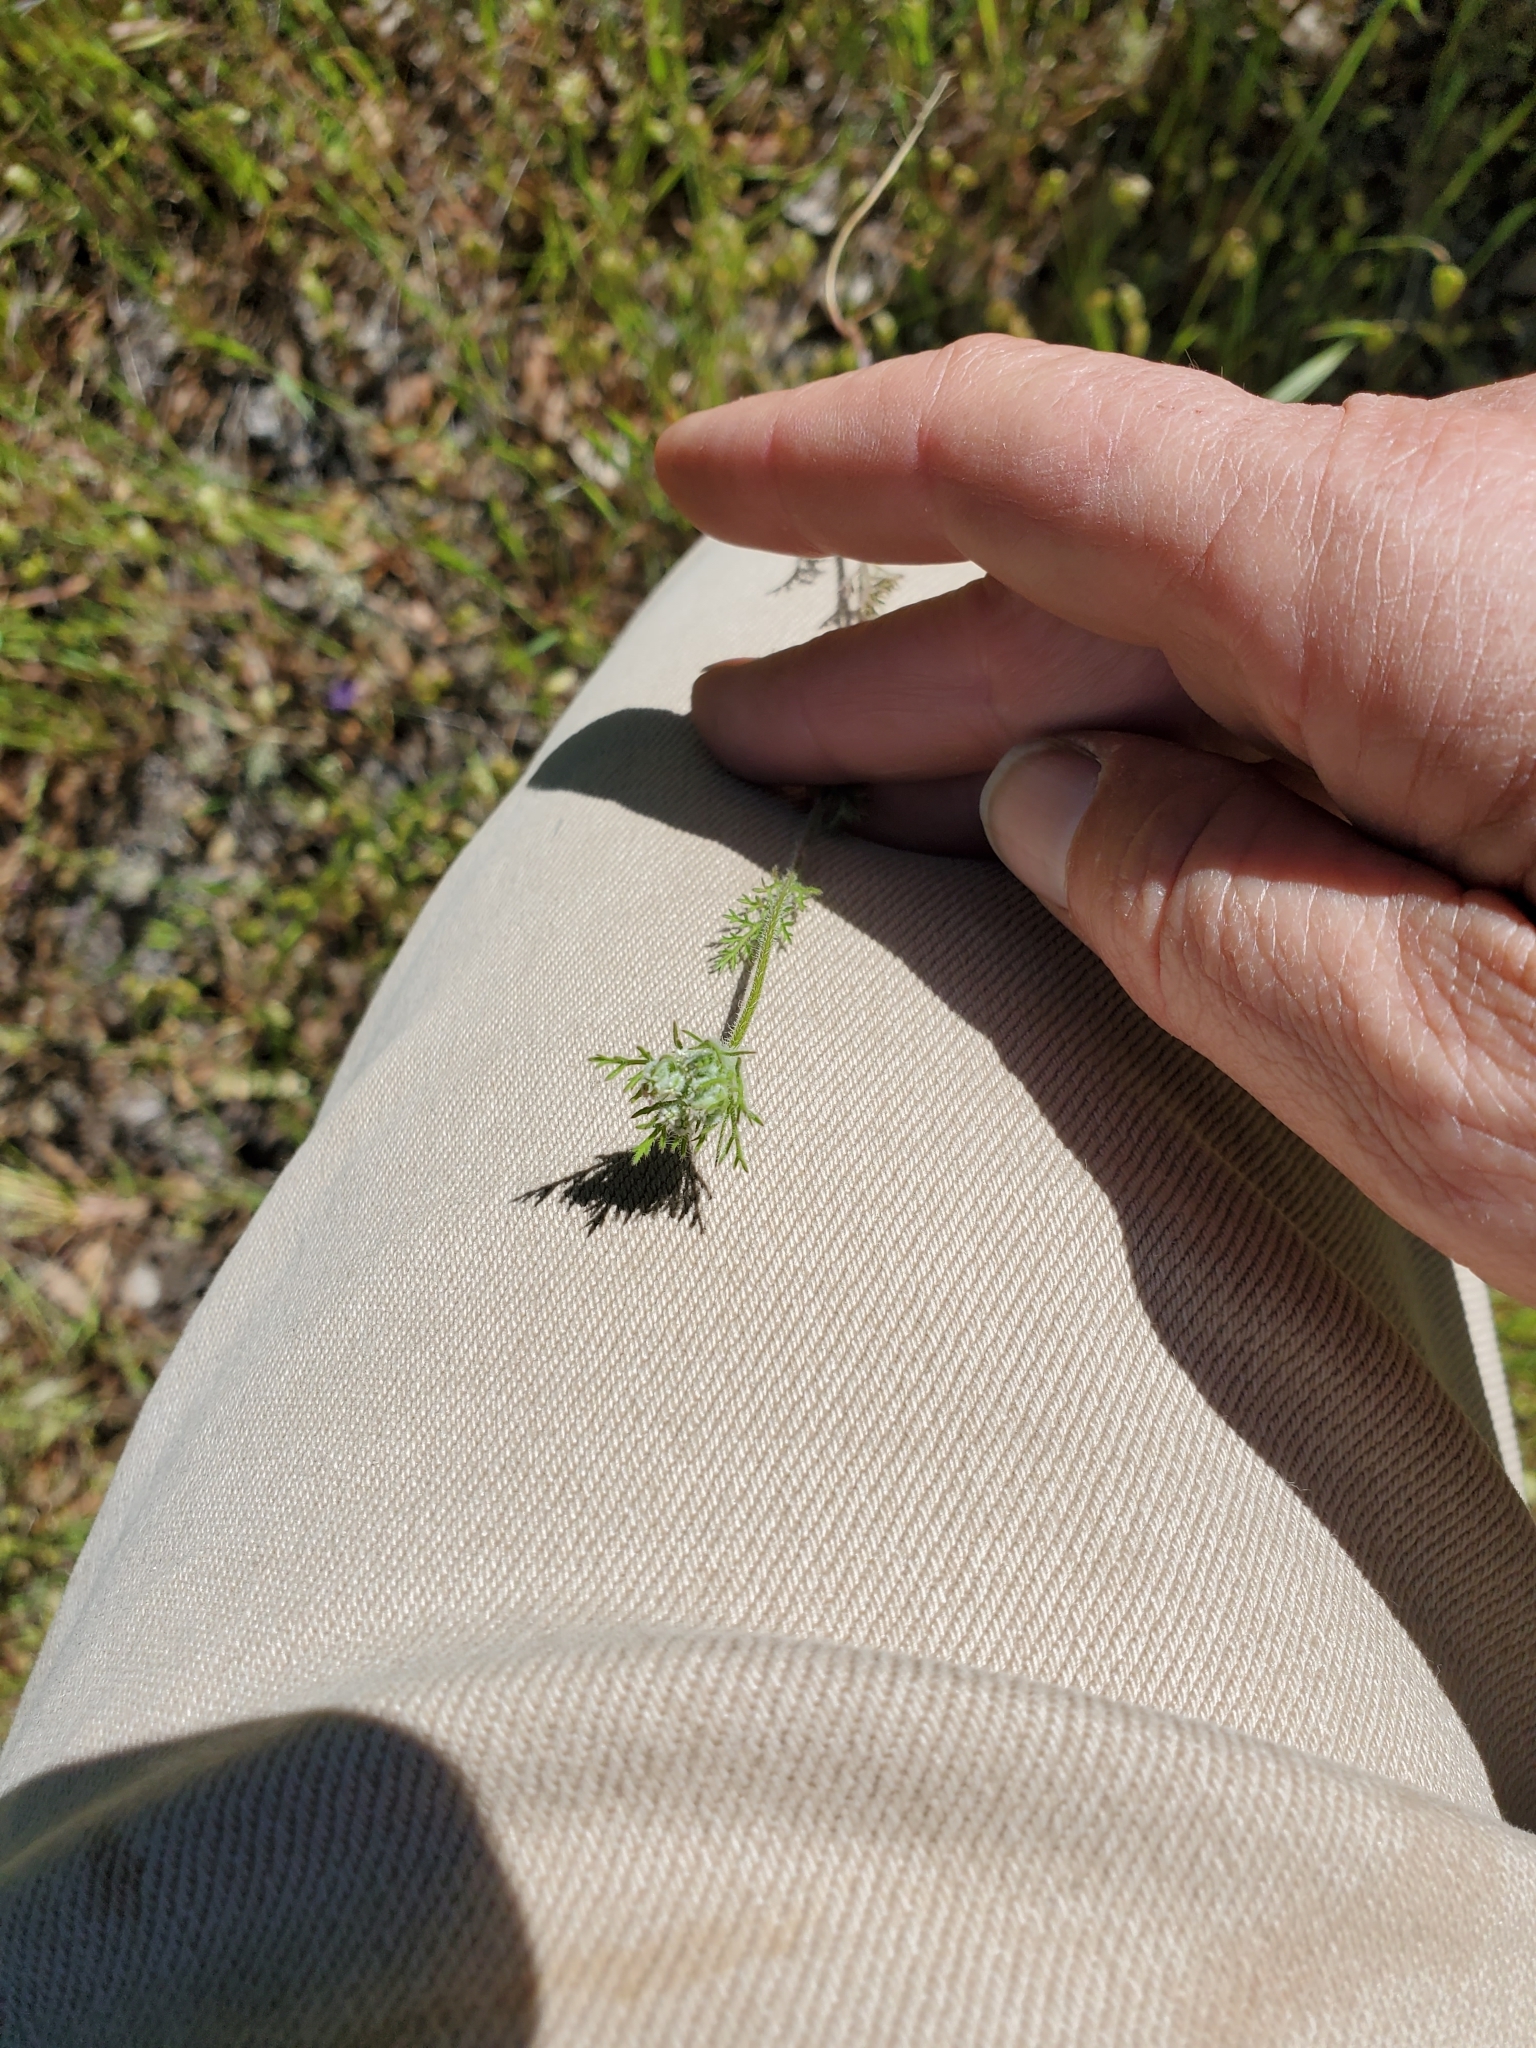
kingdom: Plantae
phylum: Tracheophyta
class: Magnoliopsida
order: Apiales
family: Apiaceae
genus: Daucus
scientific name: Daucus pusillus
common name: Southwest wild carrot
